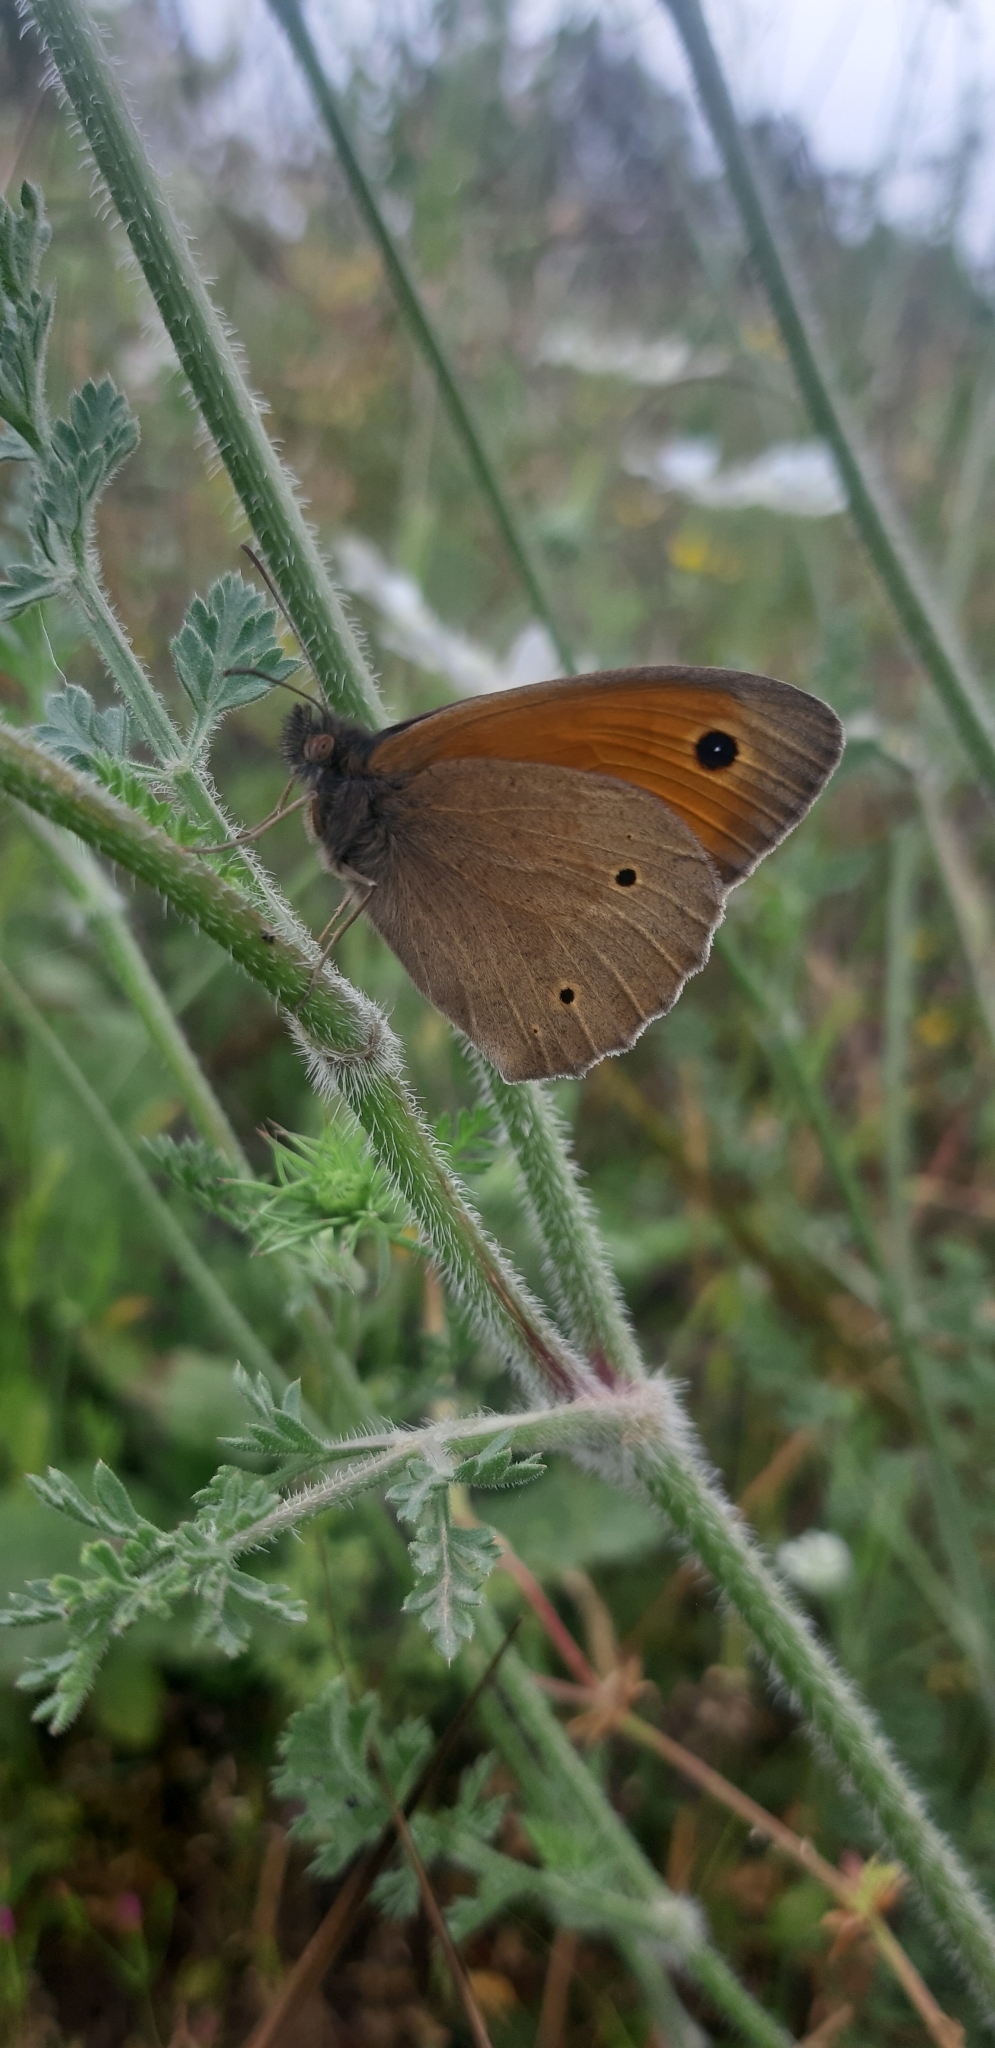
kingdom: Animalia
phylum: Arthropoda
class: Insecta
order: Lepidoptera
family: Nymphalidae
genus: Maniola
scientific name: Maniola jurtina
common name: Meadow brown
